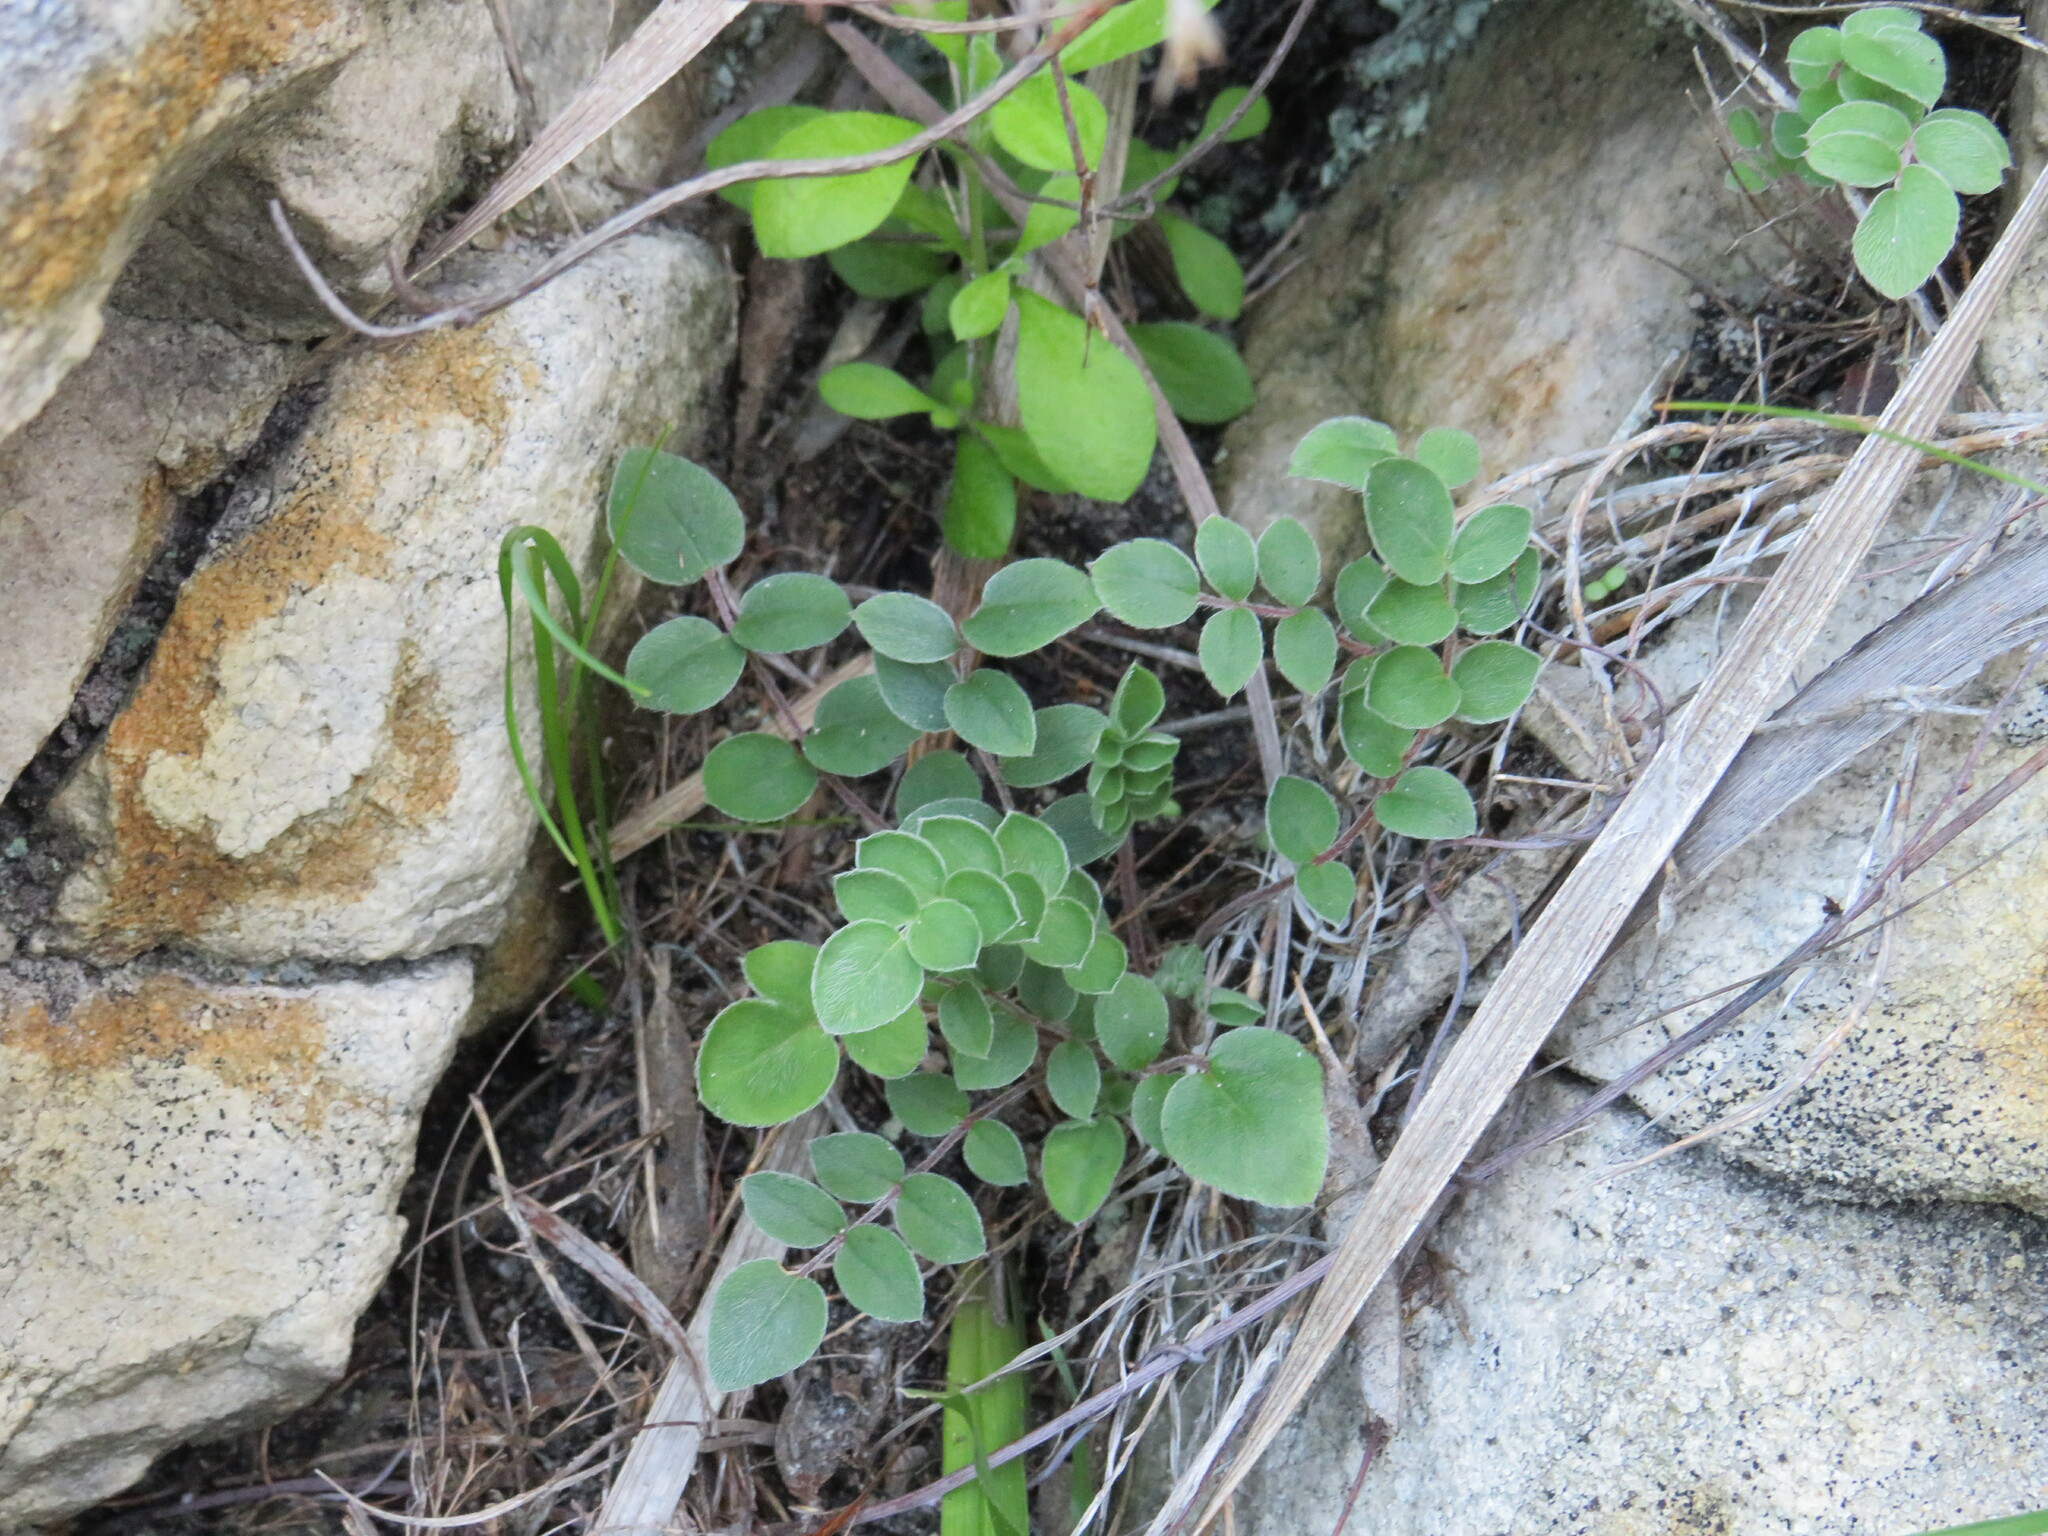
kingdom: Plantae
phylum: Tracheophyta
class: Magnoliopsida
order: Geraniales
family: Geraniaceae
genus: Pelargonium
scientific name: Pelargonium pinnatum
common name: Pinnated pelargonium
